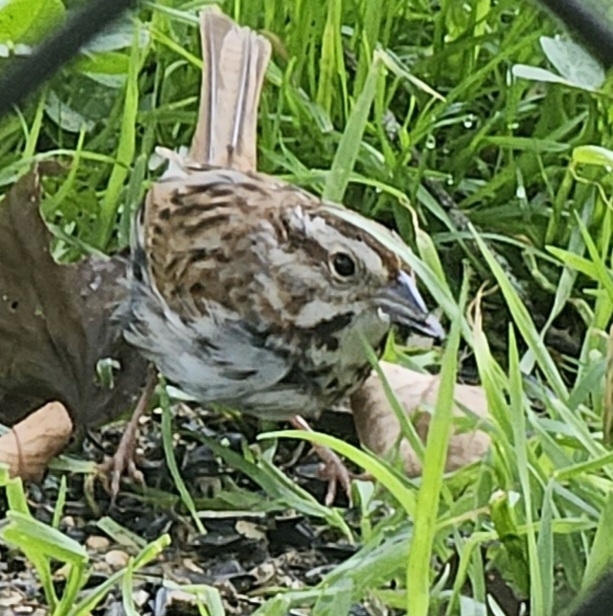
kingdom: Animalia
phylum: Chordata
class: Aves
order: Passeriformes
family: Passerellidae
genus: Melospiza
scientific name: Melospiza melodia
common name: Song sparrow
